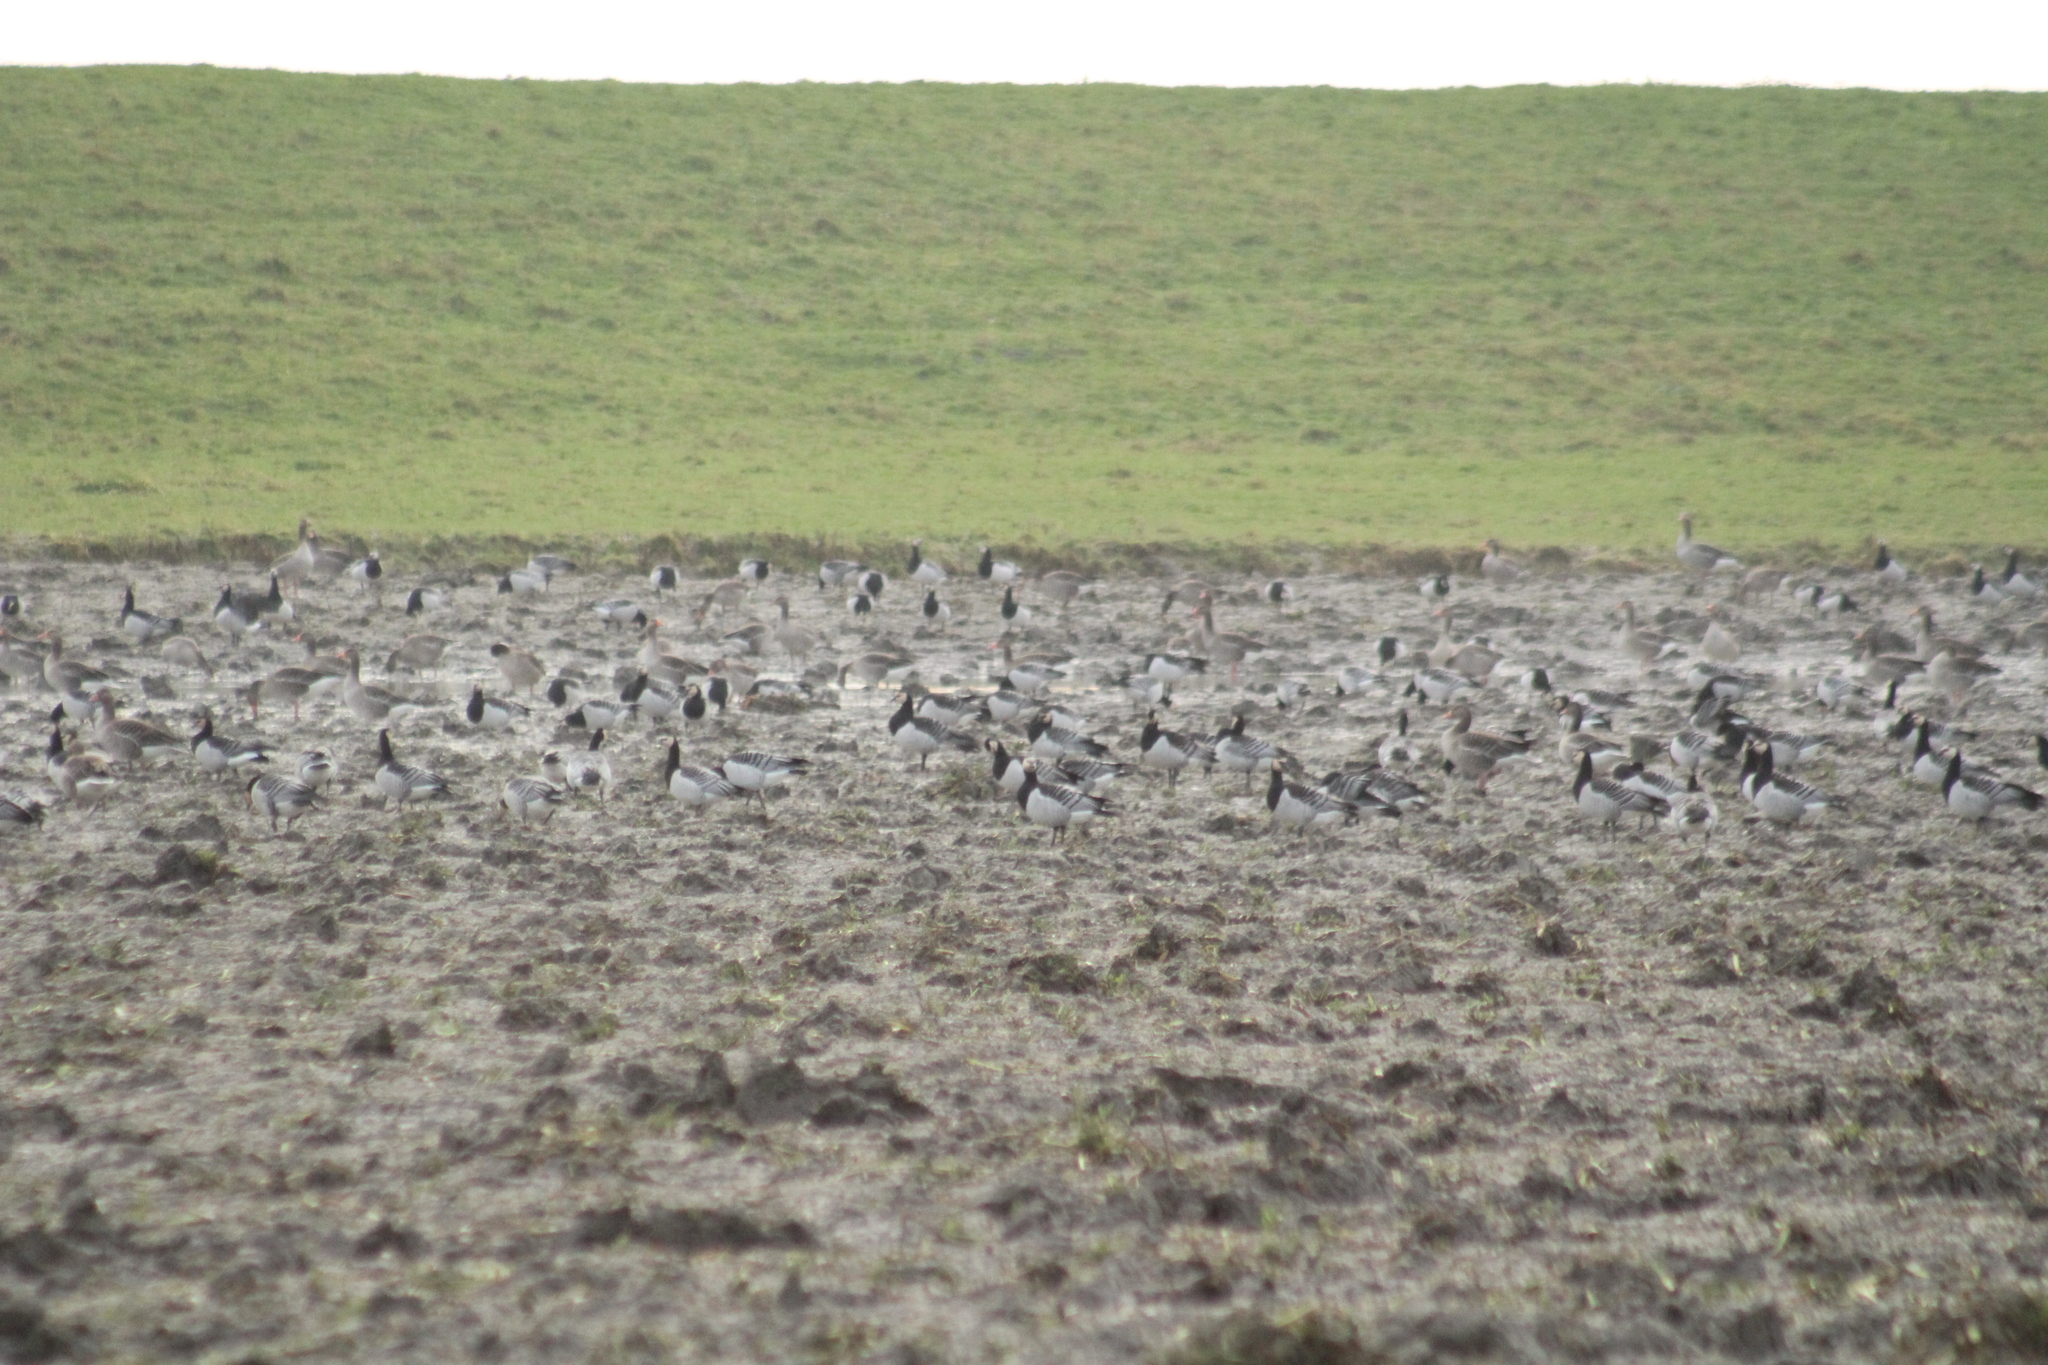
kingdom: Animalia
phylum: Chordata
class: Aves
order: Anseriformes
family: Anatidae
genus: Branta
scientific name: Branta leucopsis
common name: Barnacle goose
